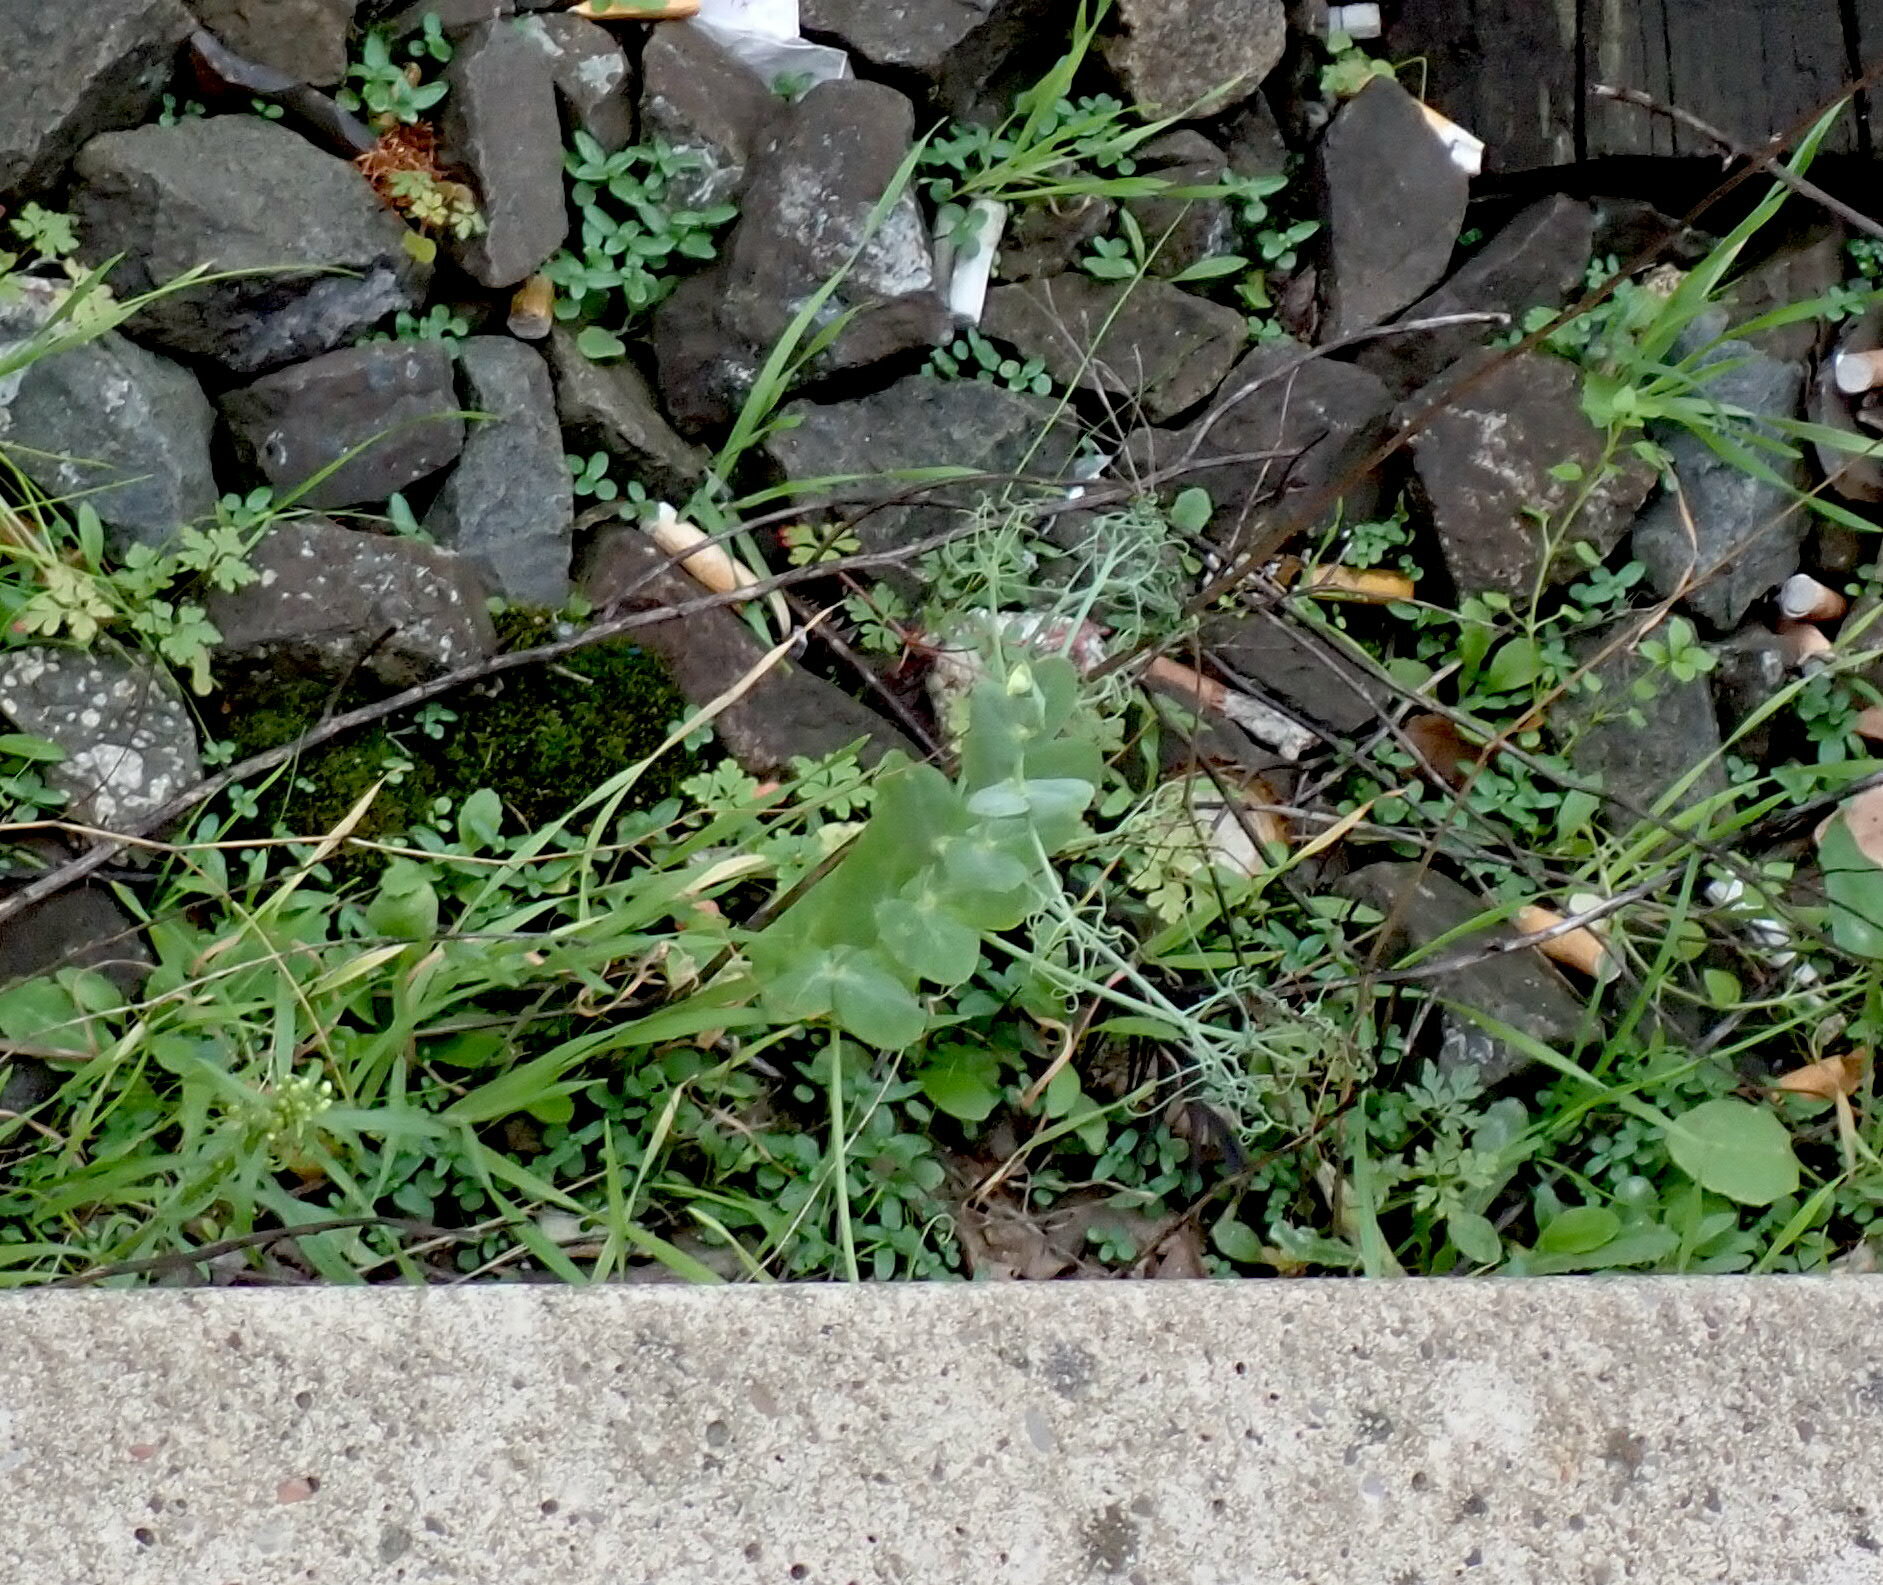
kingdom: Plantae
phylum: Tracheophyta
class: Magnoliopsida
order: Fabales
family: Fabaceae
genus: Lathyrus
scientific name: Lathyrus oleraceus
